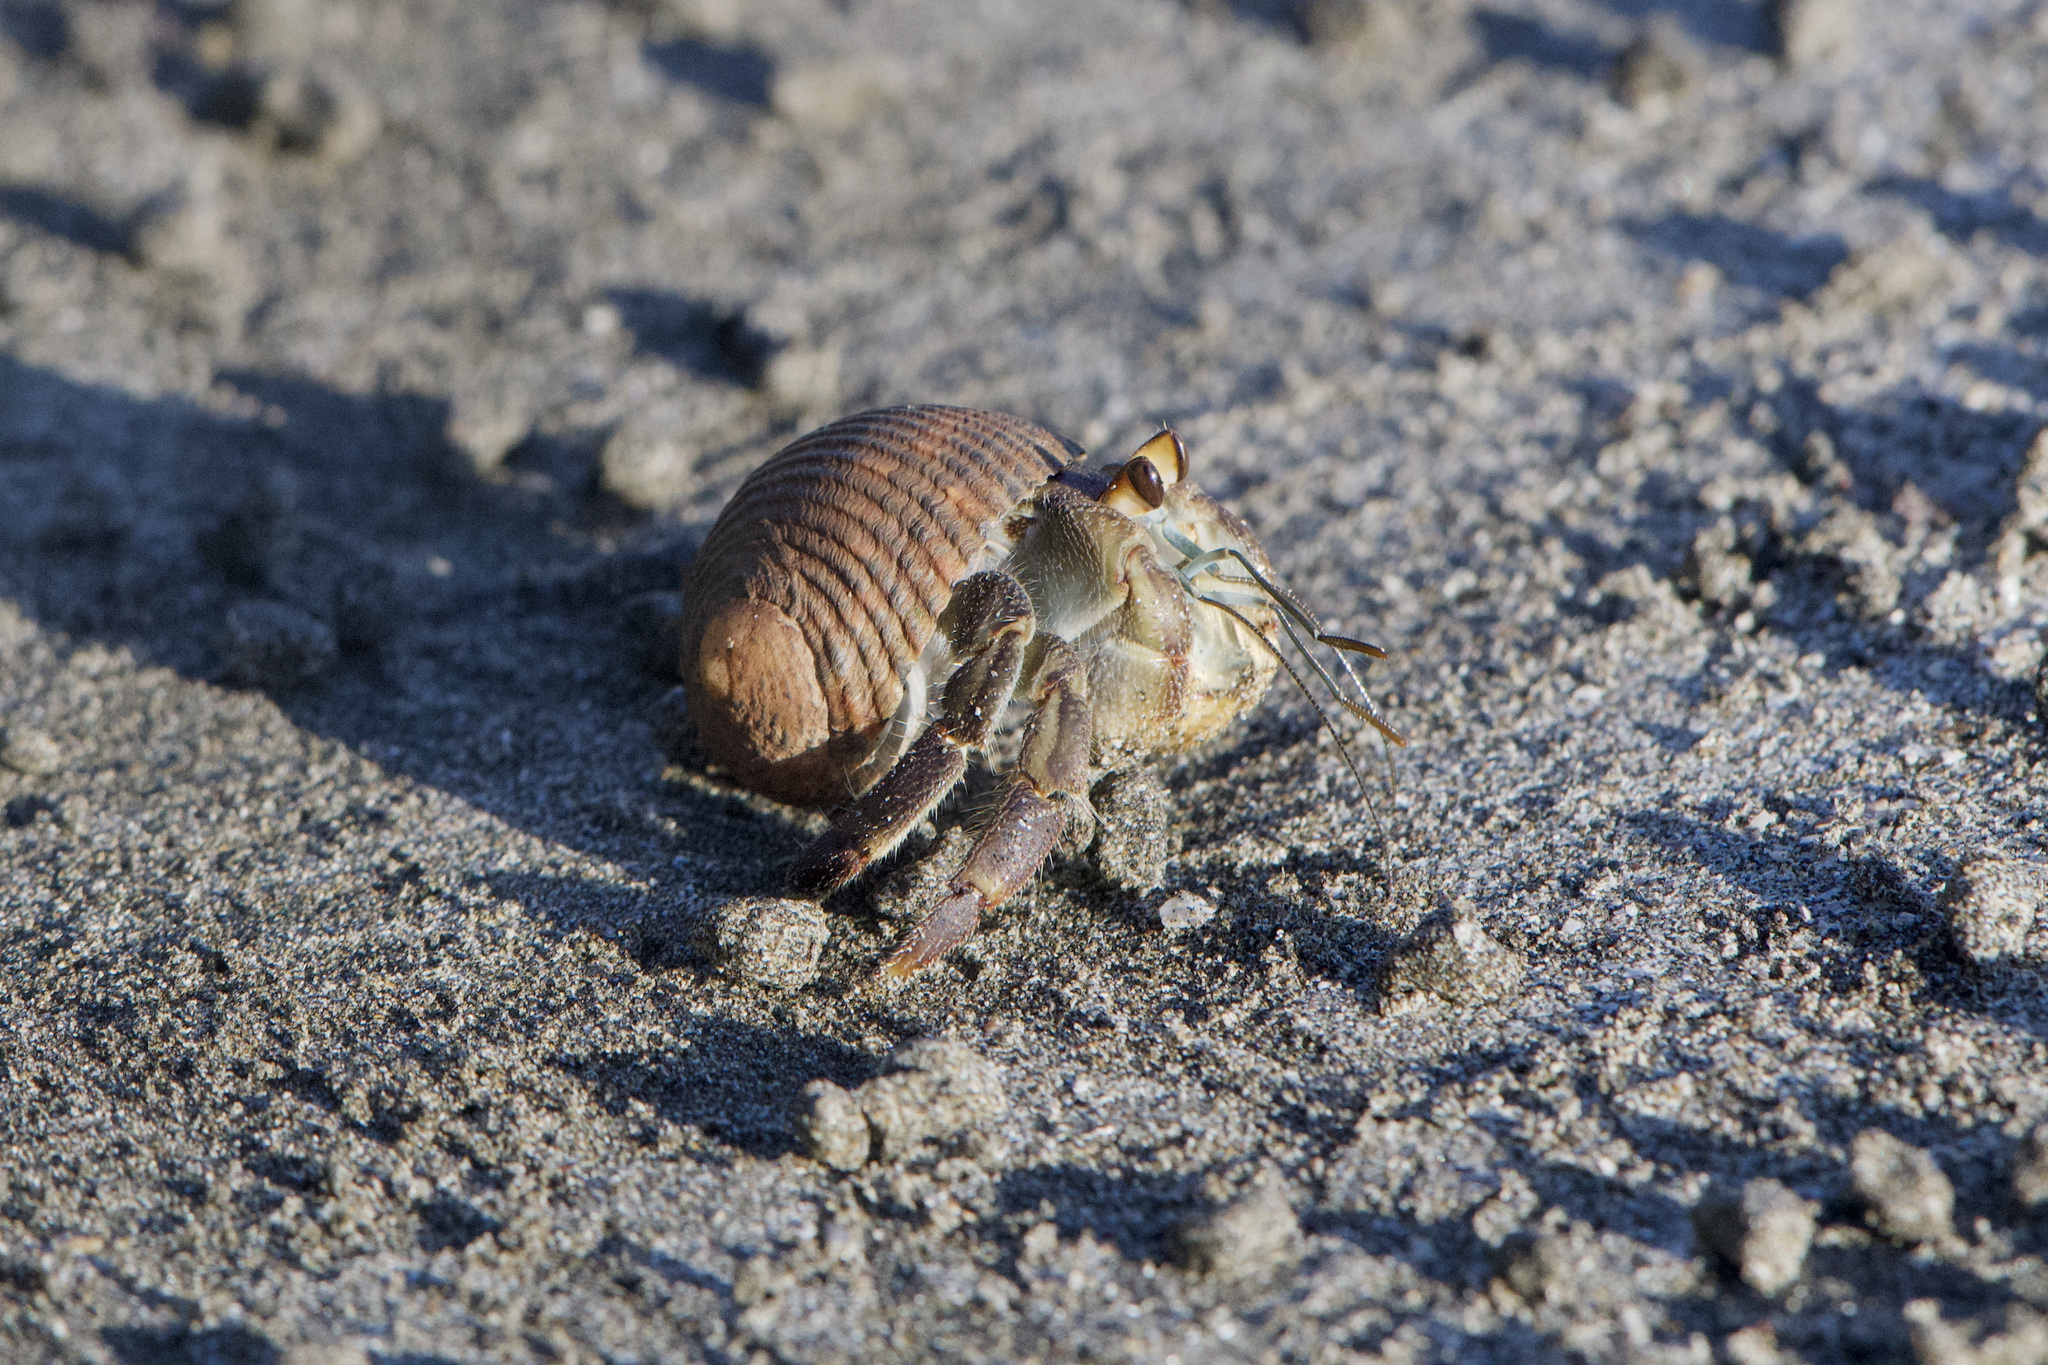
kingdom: Animalia
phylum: Arthropoda
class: Malacostraca
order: Decapoda
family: Coenobitidae
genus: Coenobita
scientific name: Coenobita compressus
